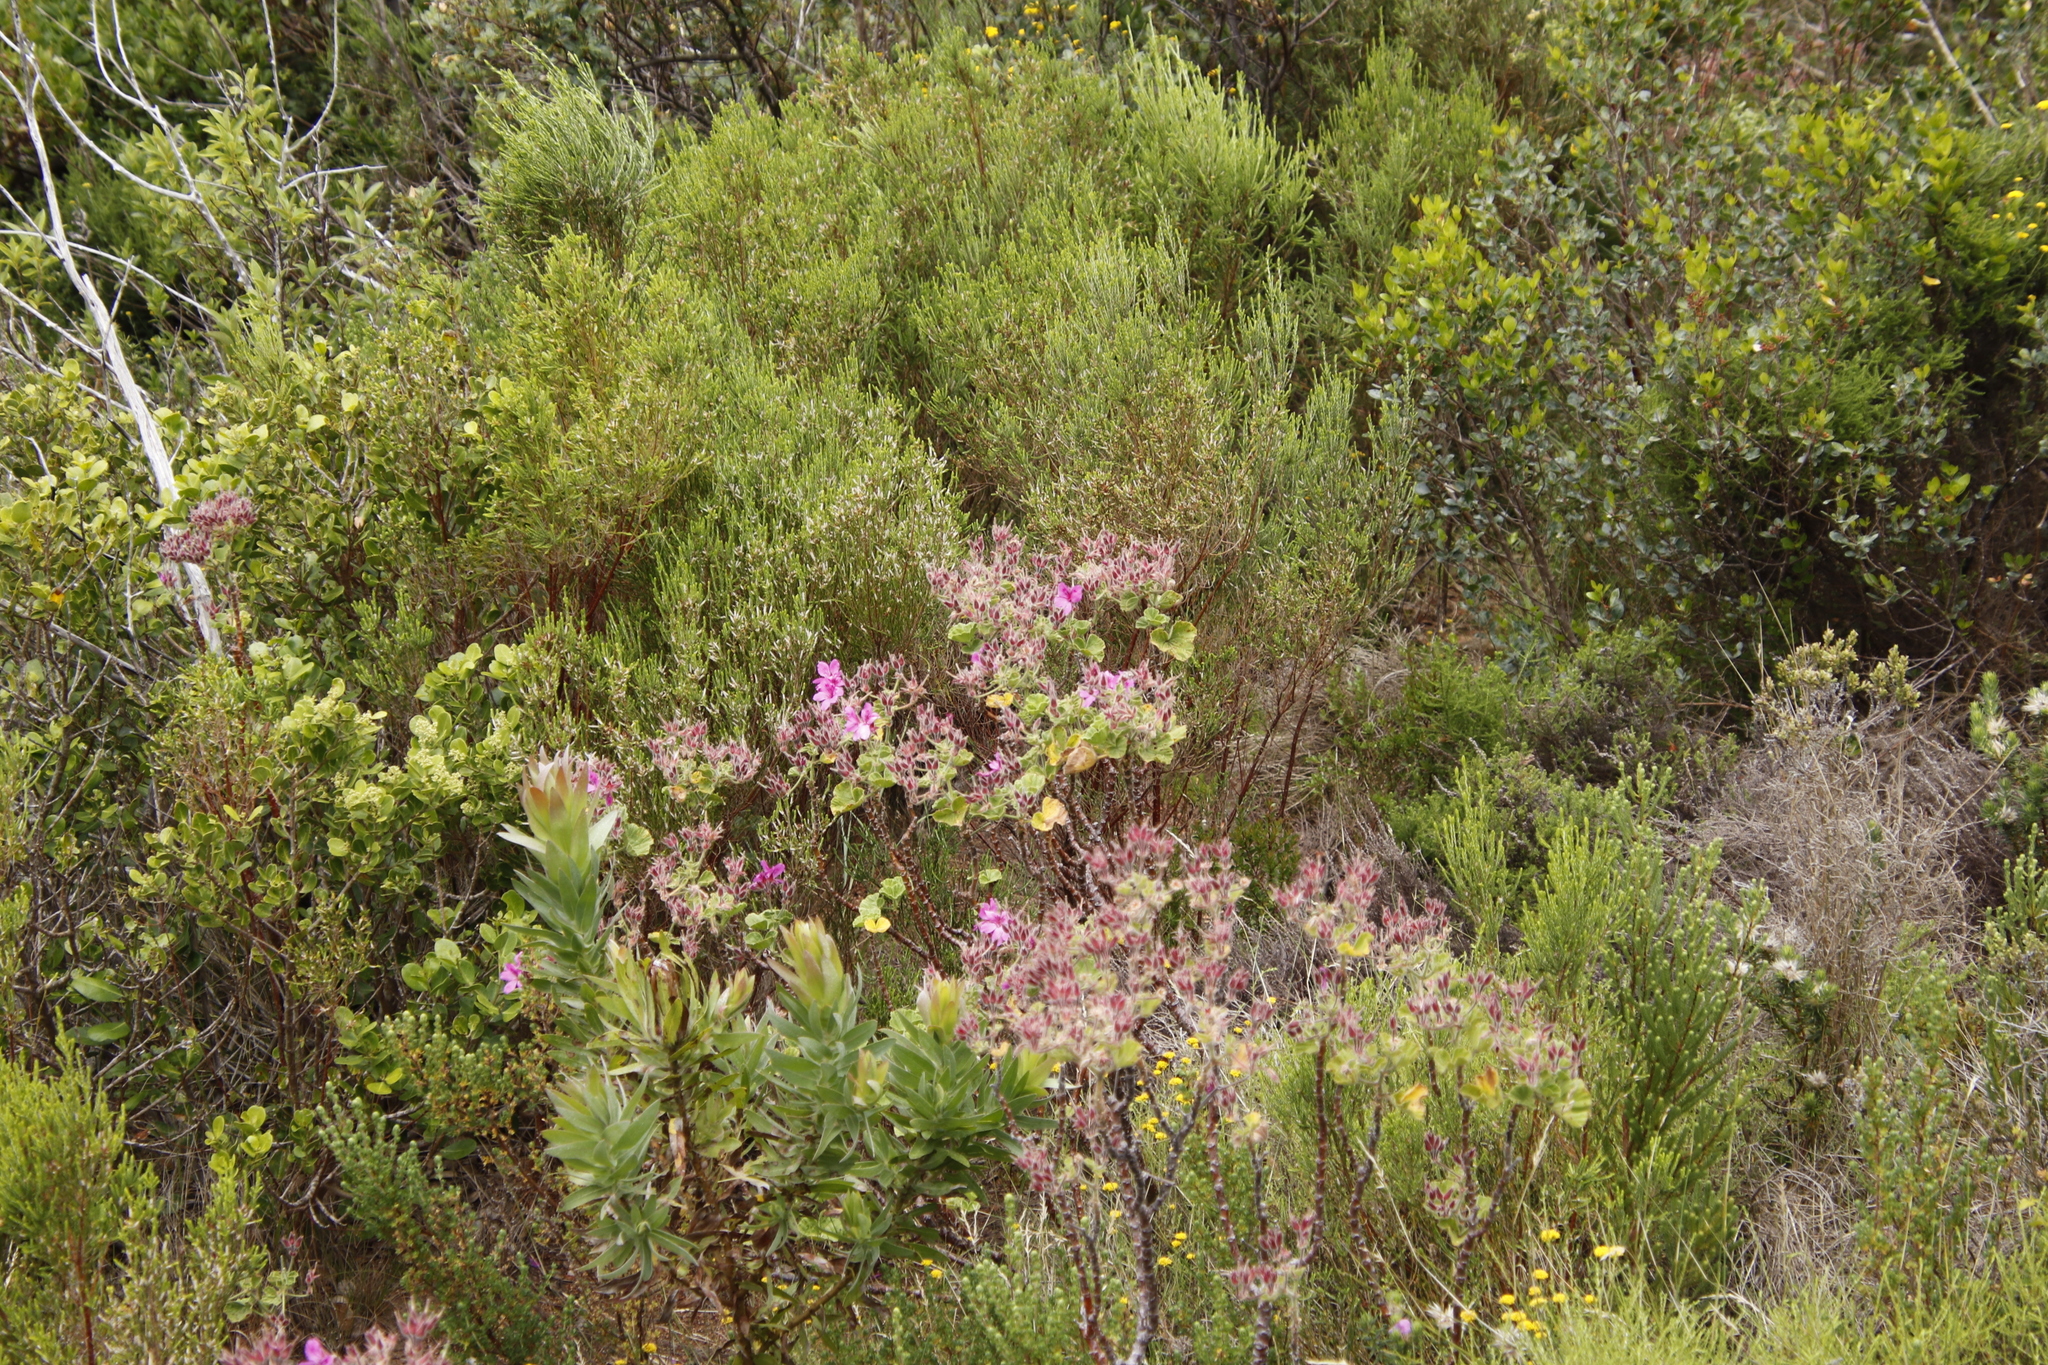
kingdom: Plantae
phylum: Tracheophyta
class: Magnoliopsida
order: Geraniales
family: Geraniaceae
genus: Pelargonium
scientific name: Pelargonium cucullatum
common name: Tree pelargonium
